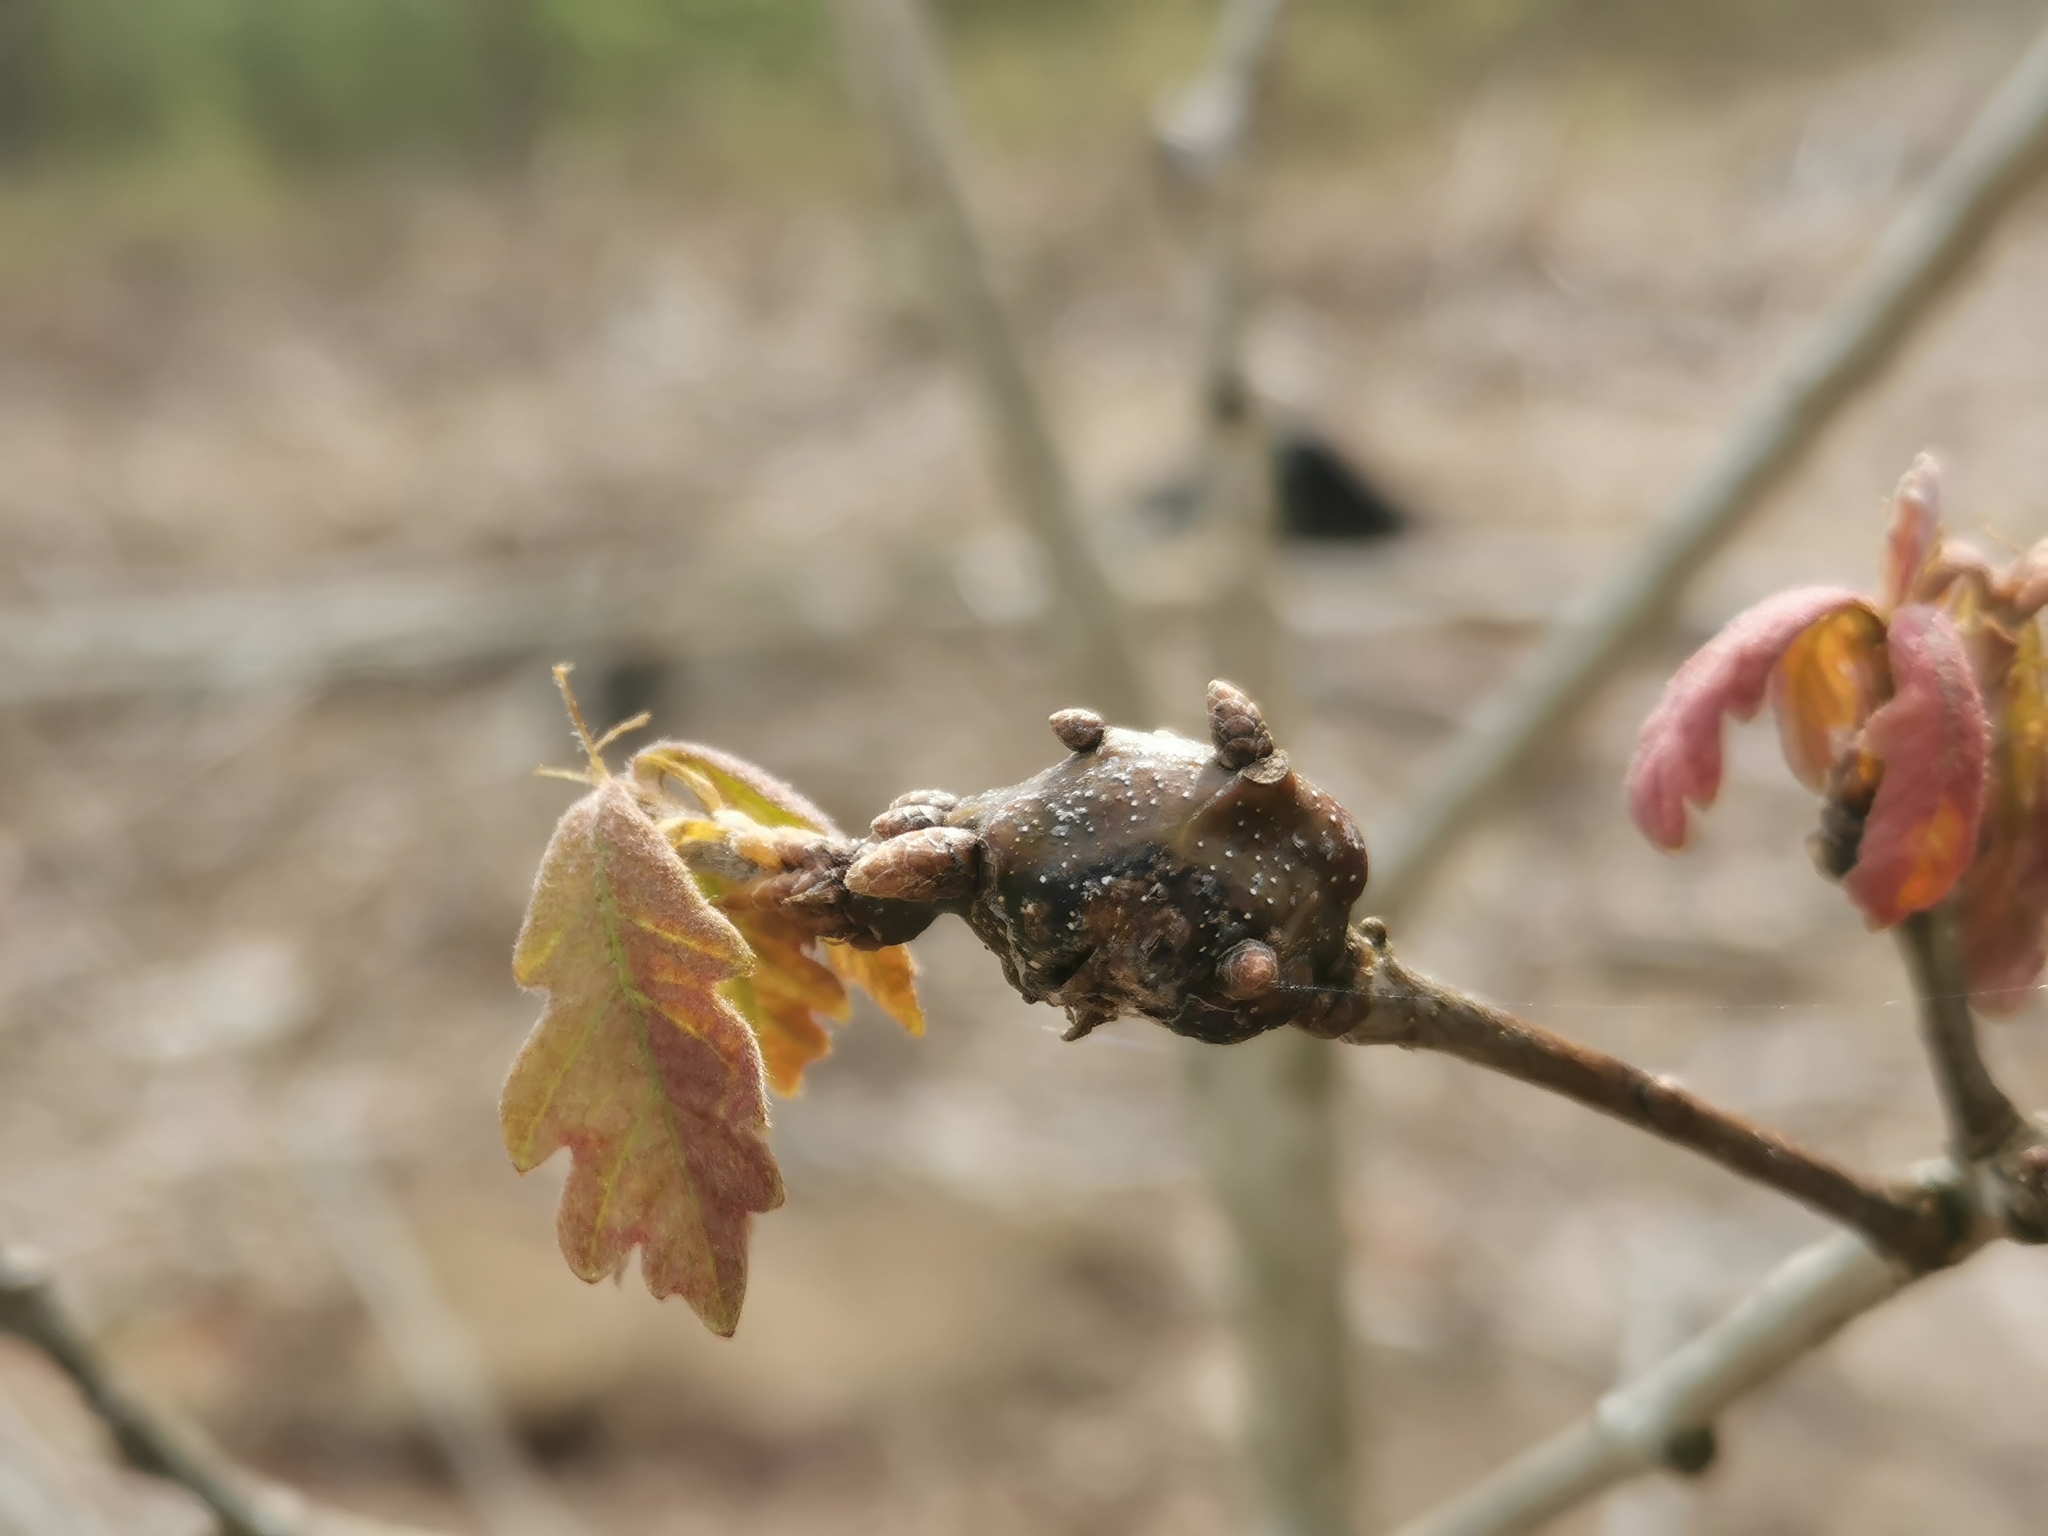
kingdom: Animalia
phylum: Arthropoda
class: Insecta
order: Hymenoptera
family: Cynipidae
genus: Zapatella
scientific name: Zapatella quercusphellos
